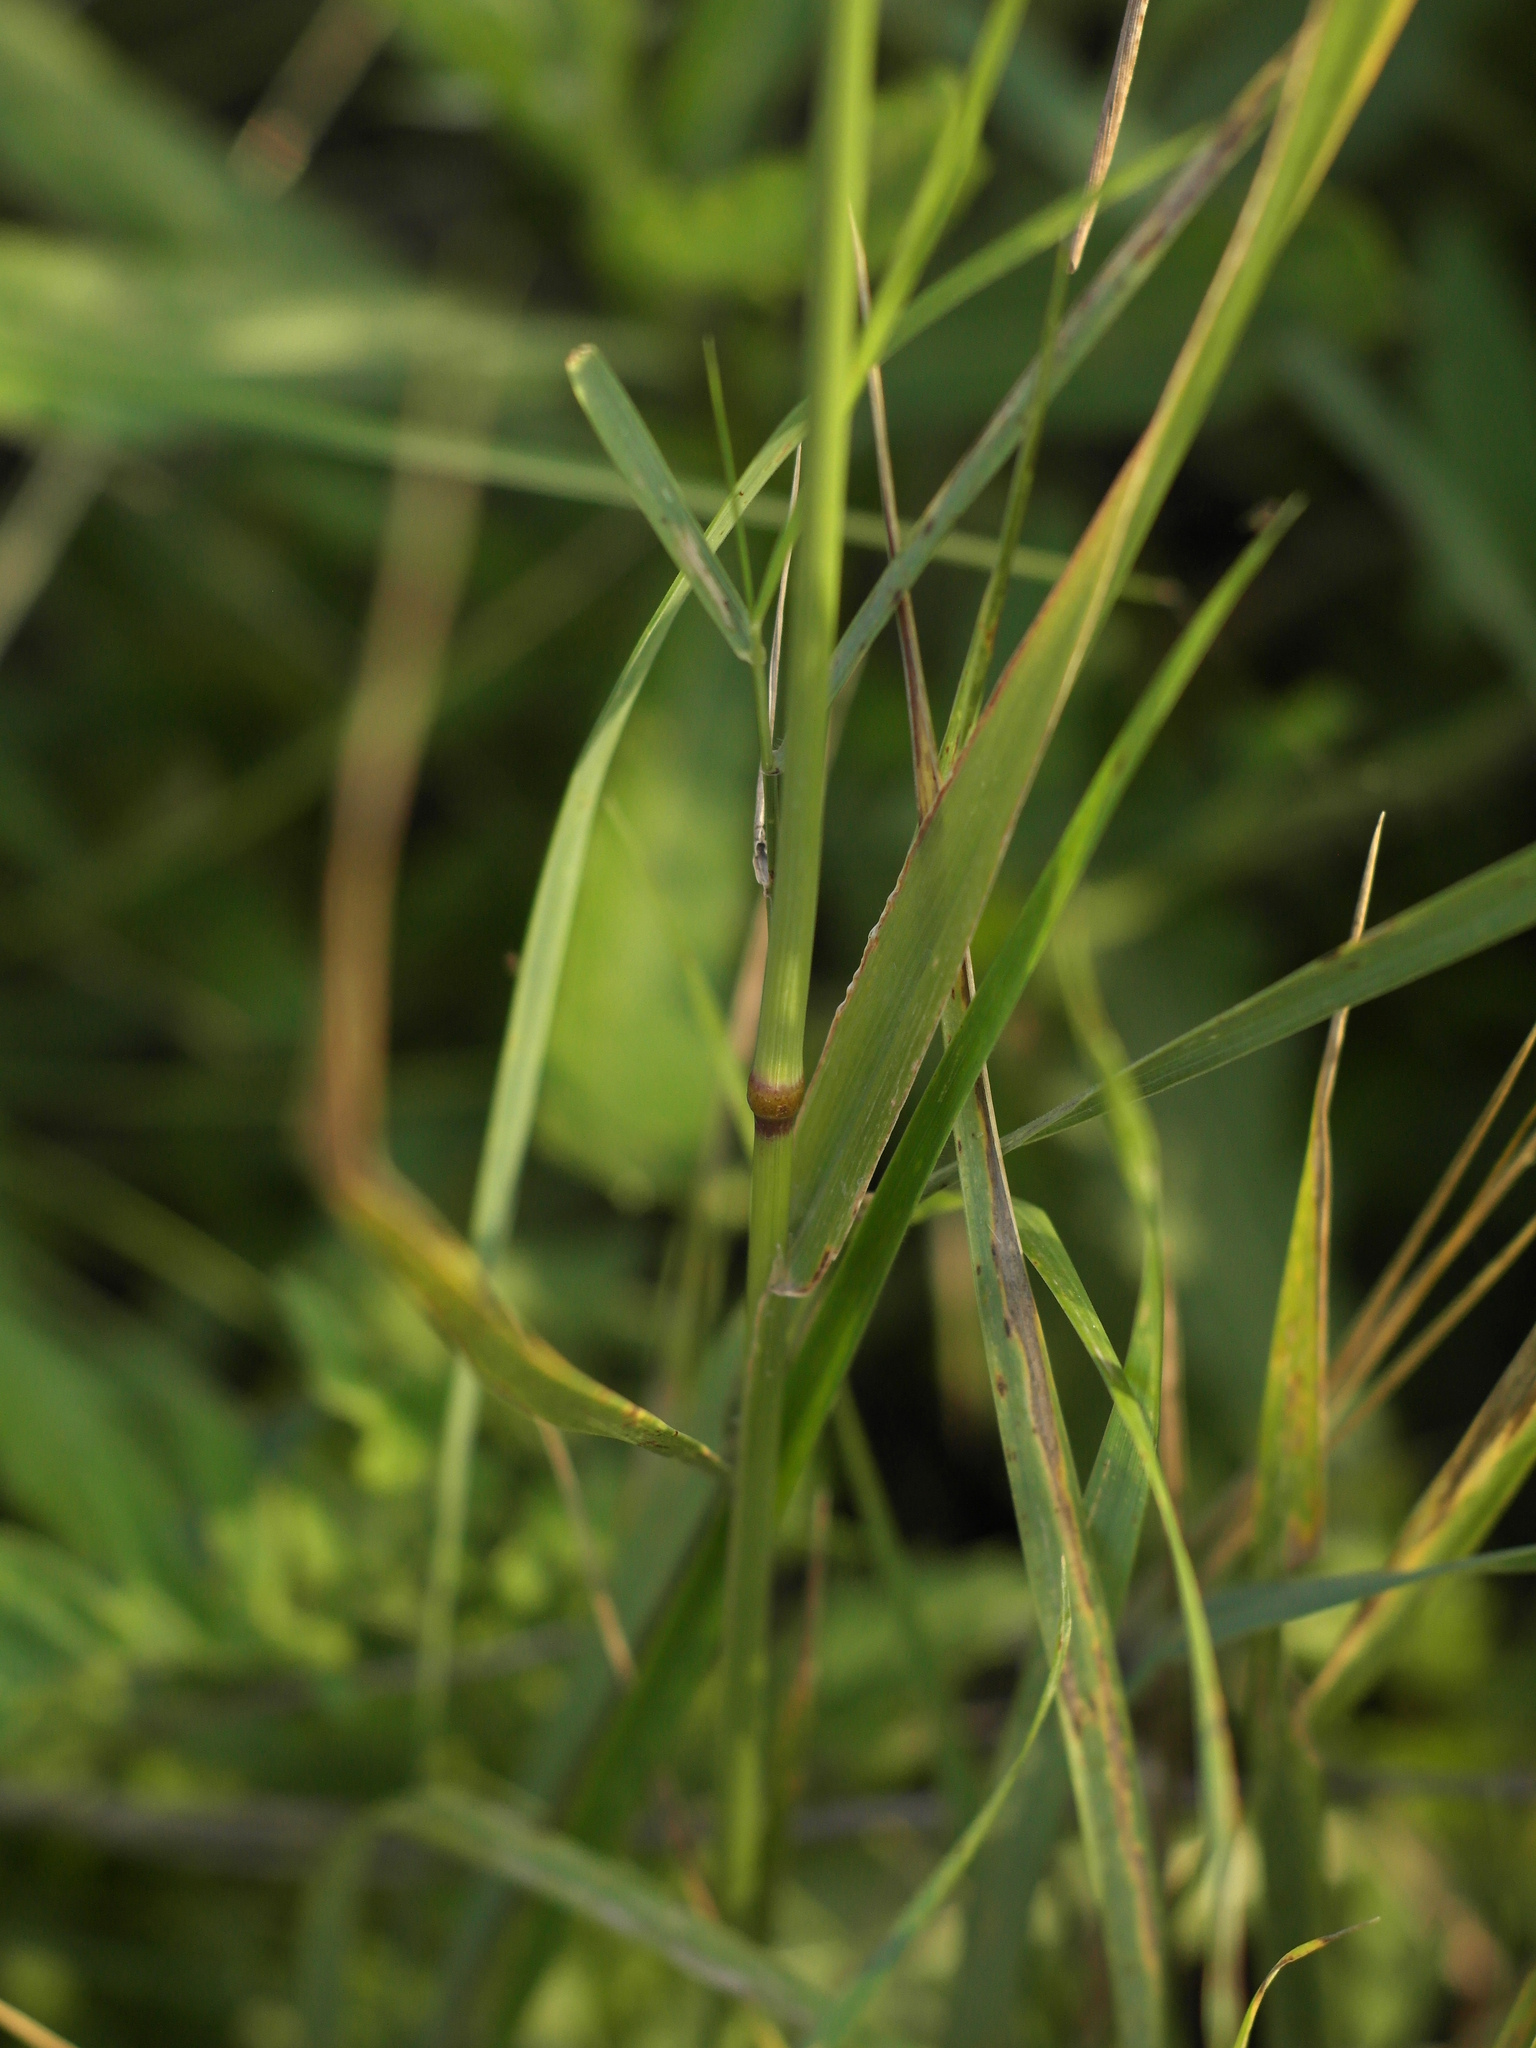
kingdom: Plantae
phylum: Tracheophyta
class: Liliopsida
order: Poales
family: Poaceae
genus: Phleum
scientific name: Phleum pratense
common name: Timothy grass
